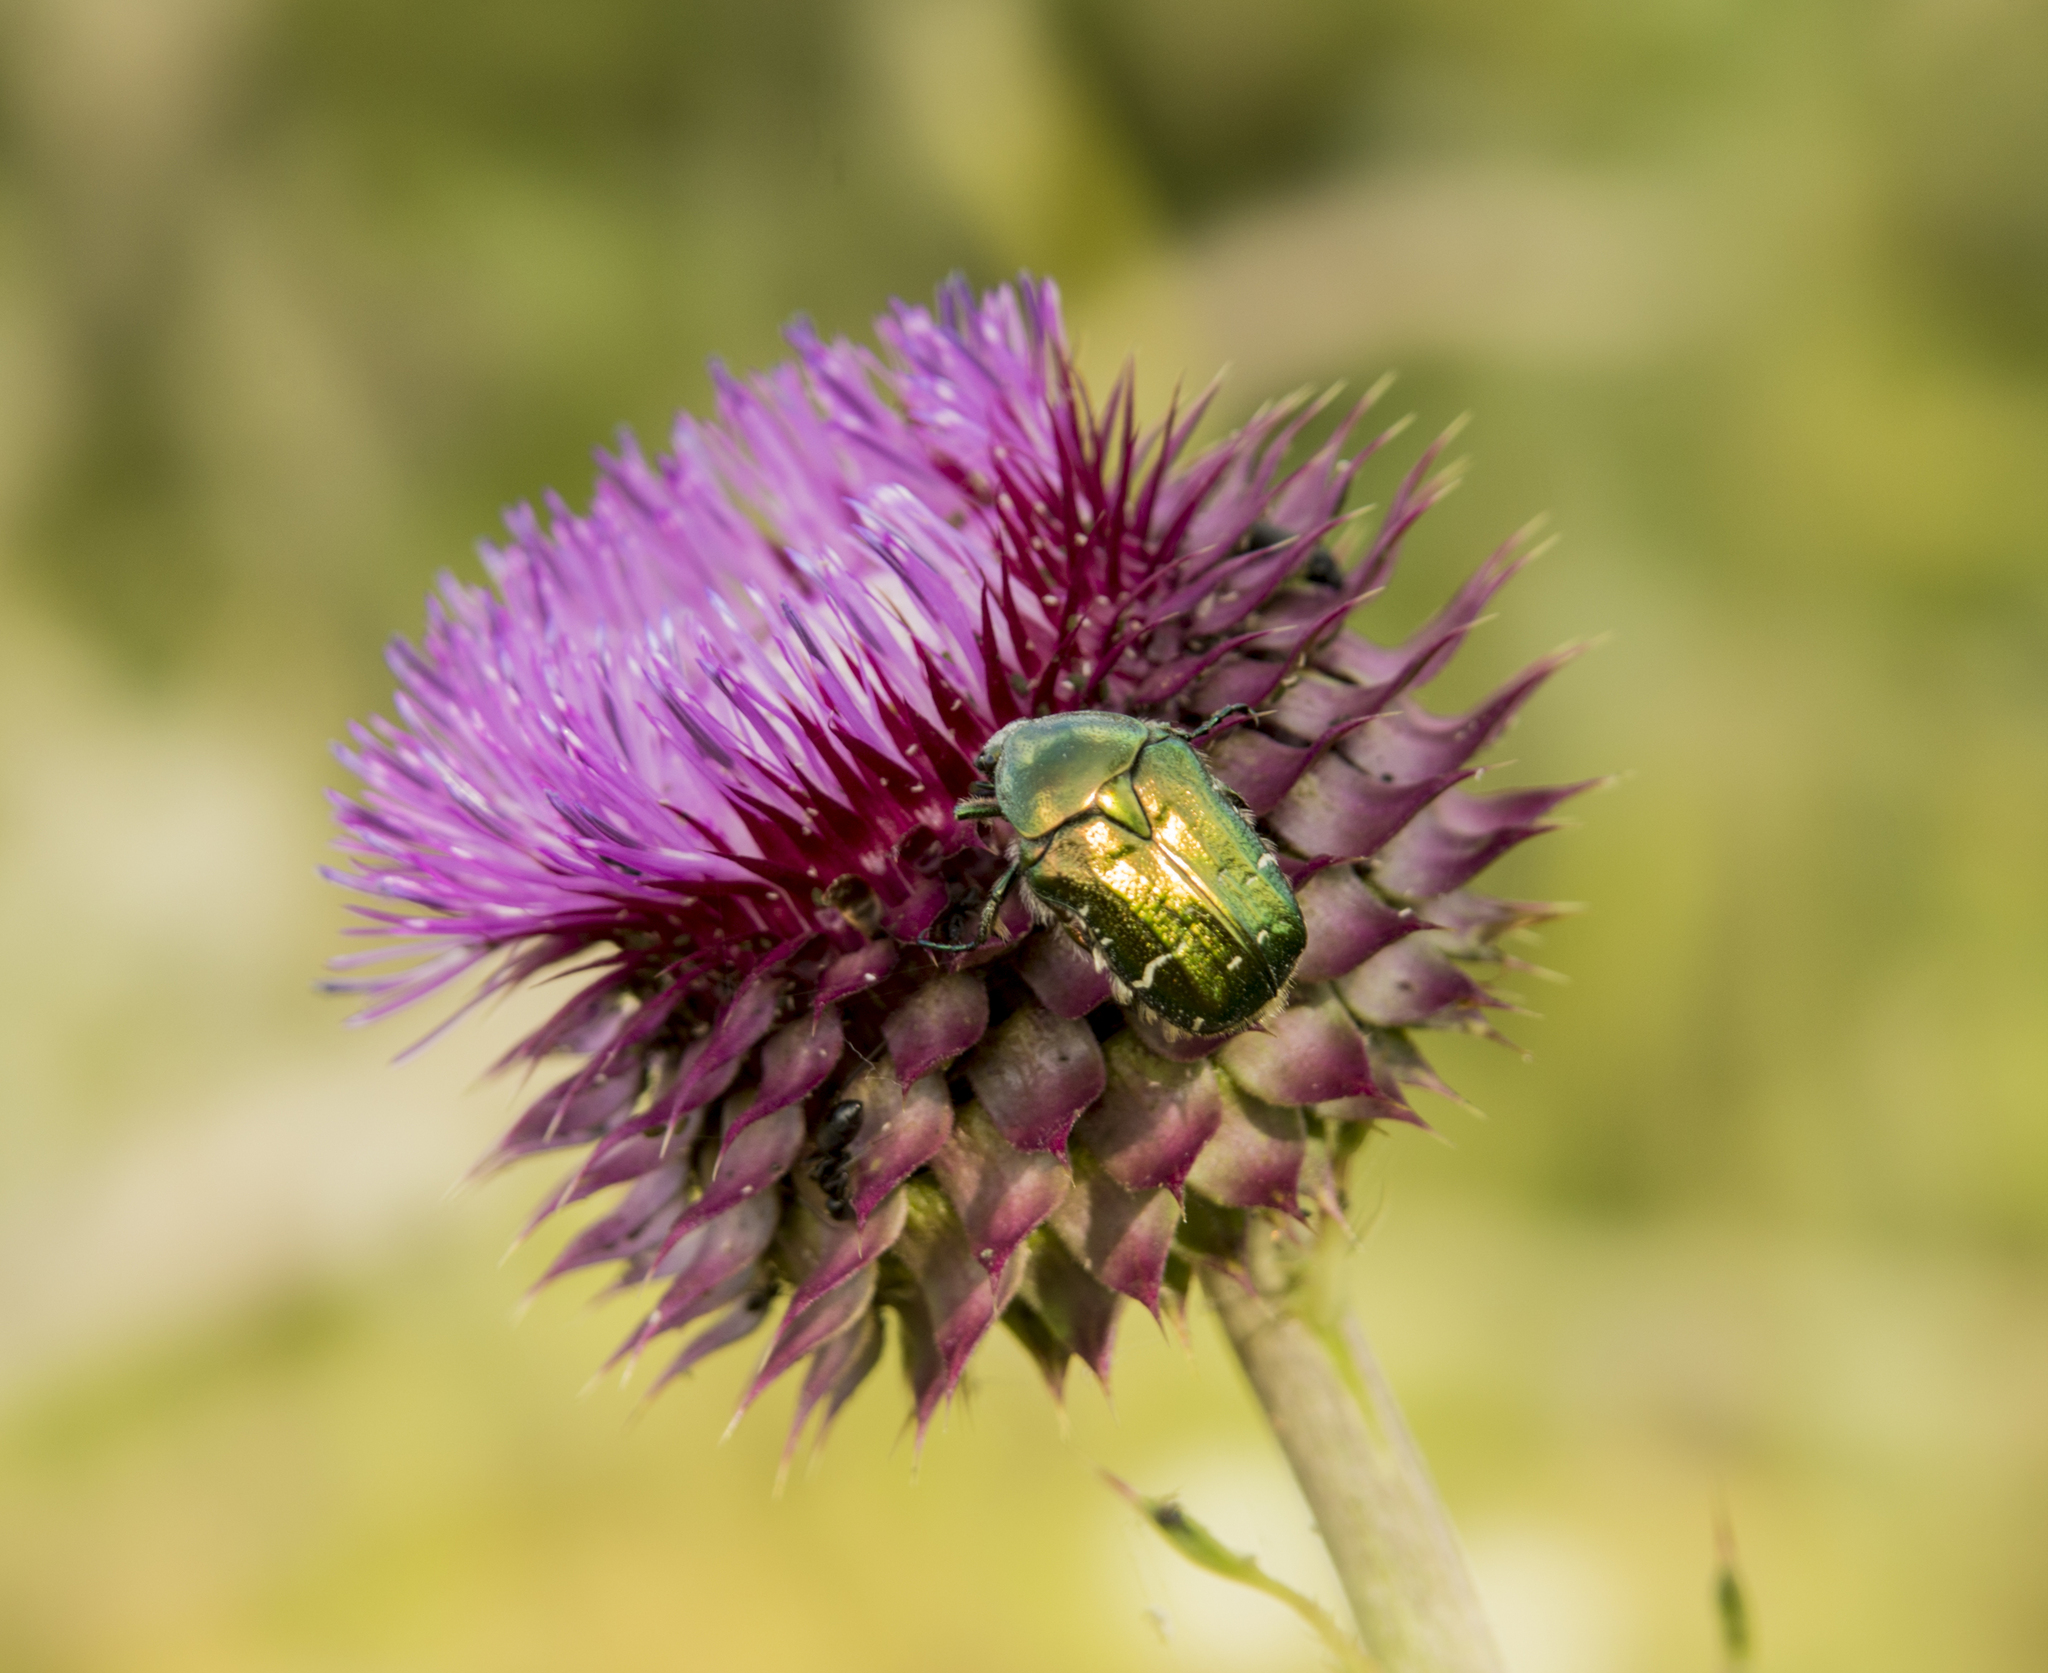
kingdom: Animalia
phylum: Arthropoda
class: Insecta
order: Coleoptera
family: Scarabaeidae
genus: Cetonia
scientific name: Cetonia aurata
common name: Rose chafer
